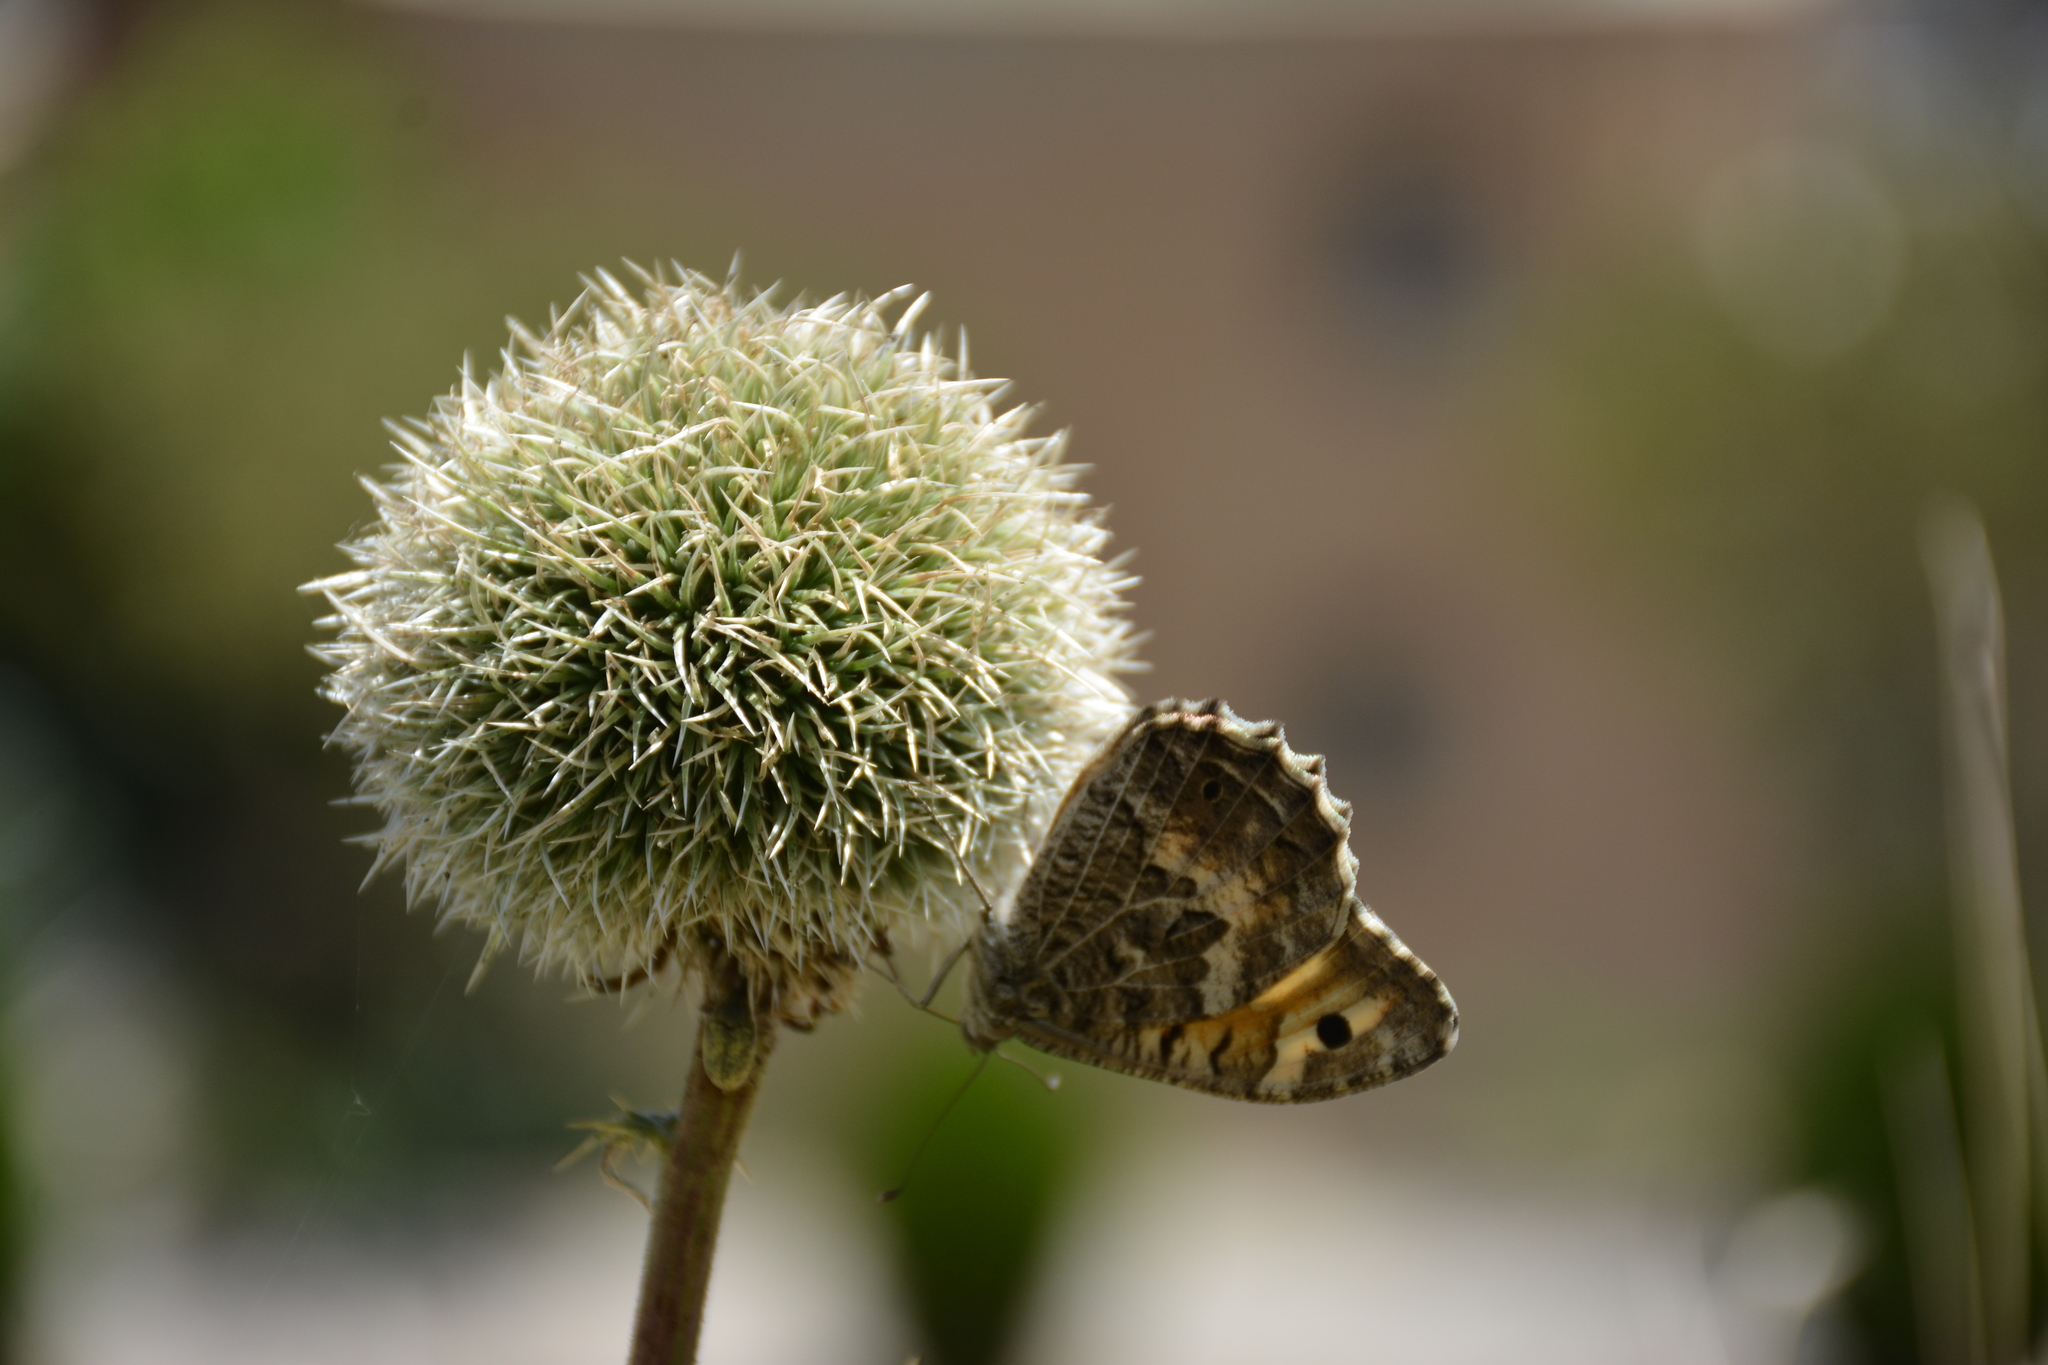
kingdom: Animalia
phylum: Arthropoda
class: Insecta
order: Lepidoptera
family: Nymphalidae
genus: Satyrus
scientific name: Satyrus Chazara persephone
